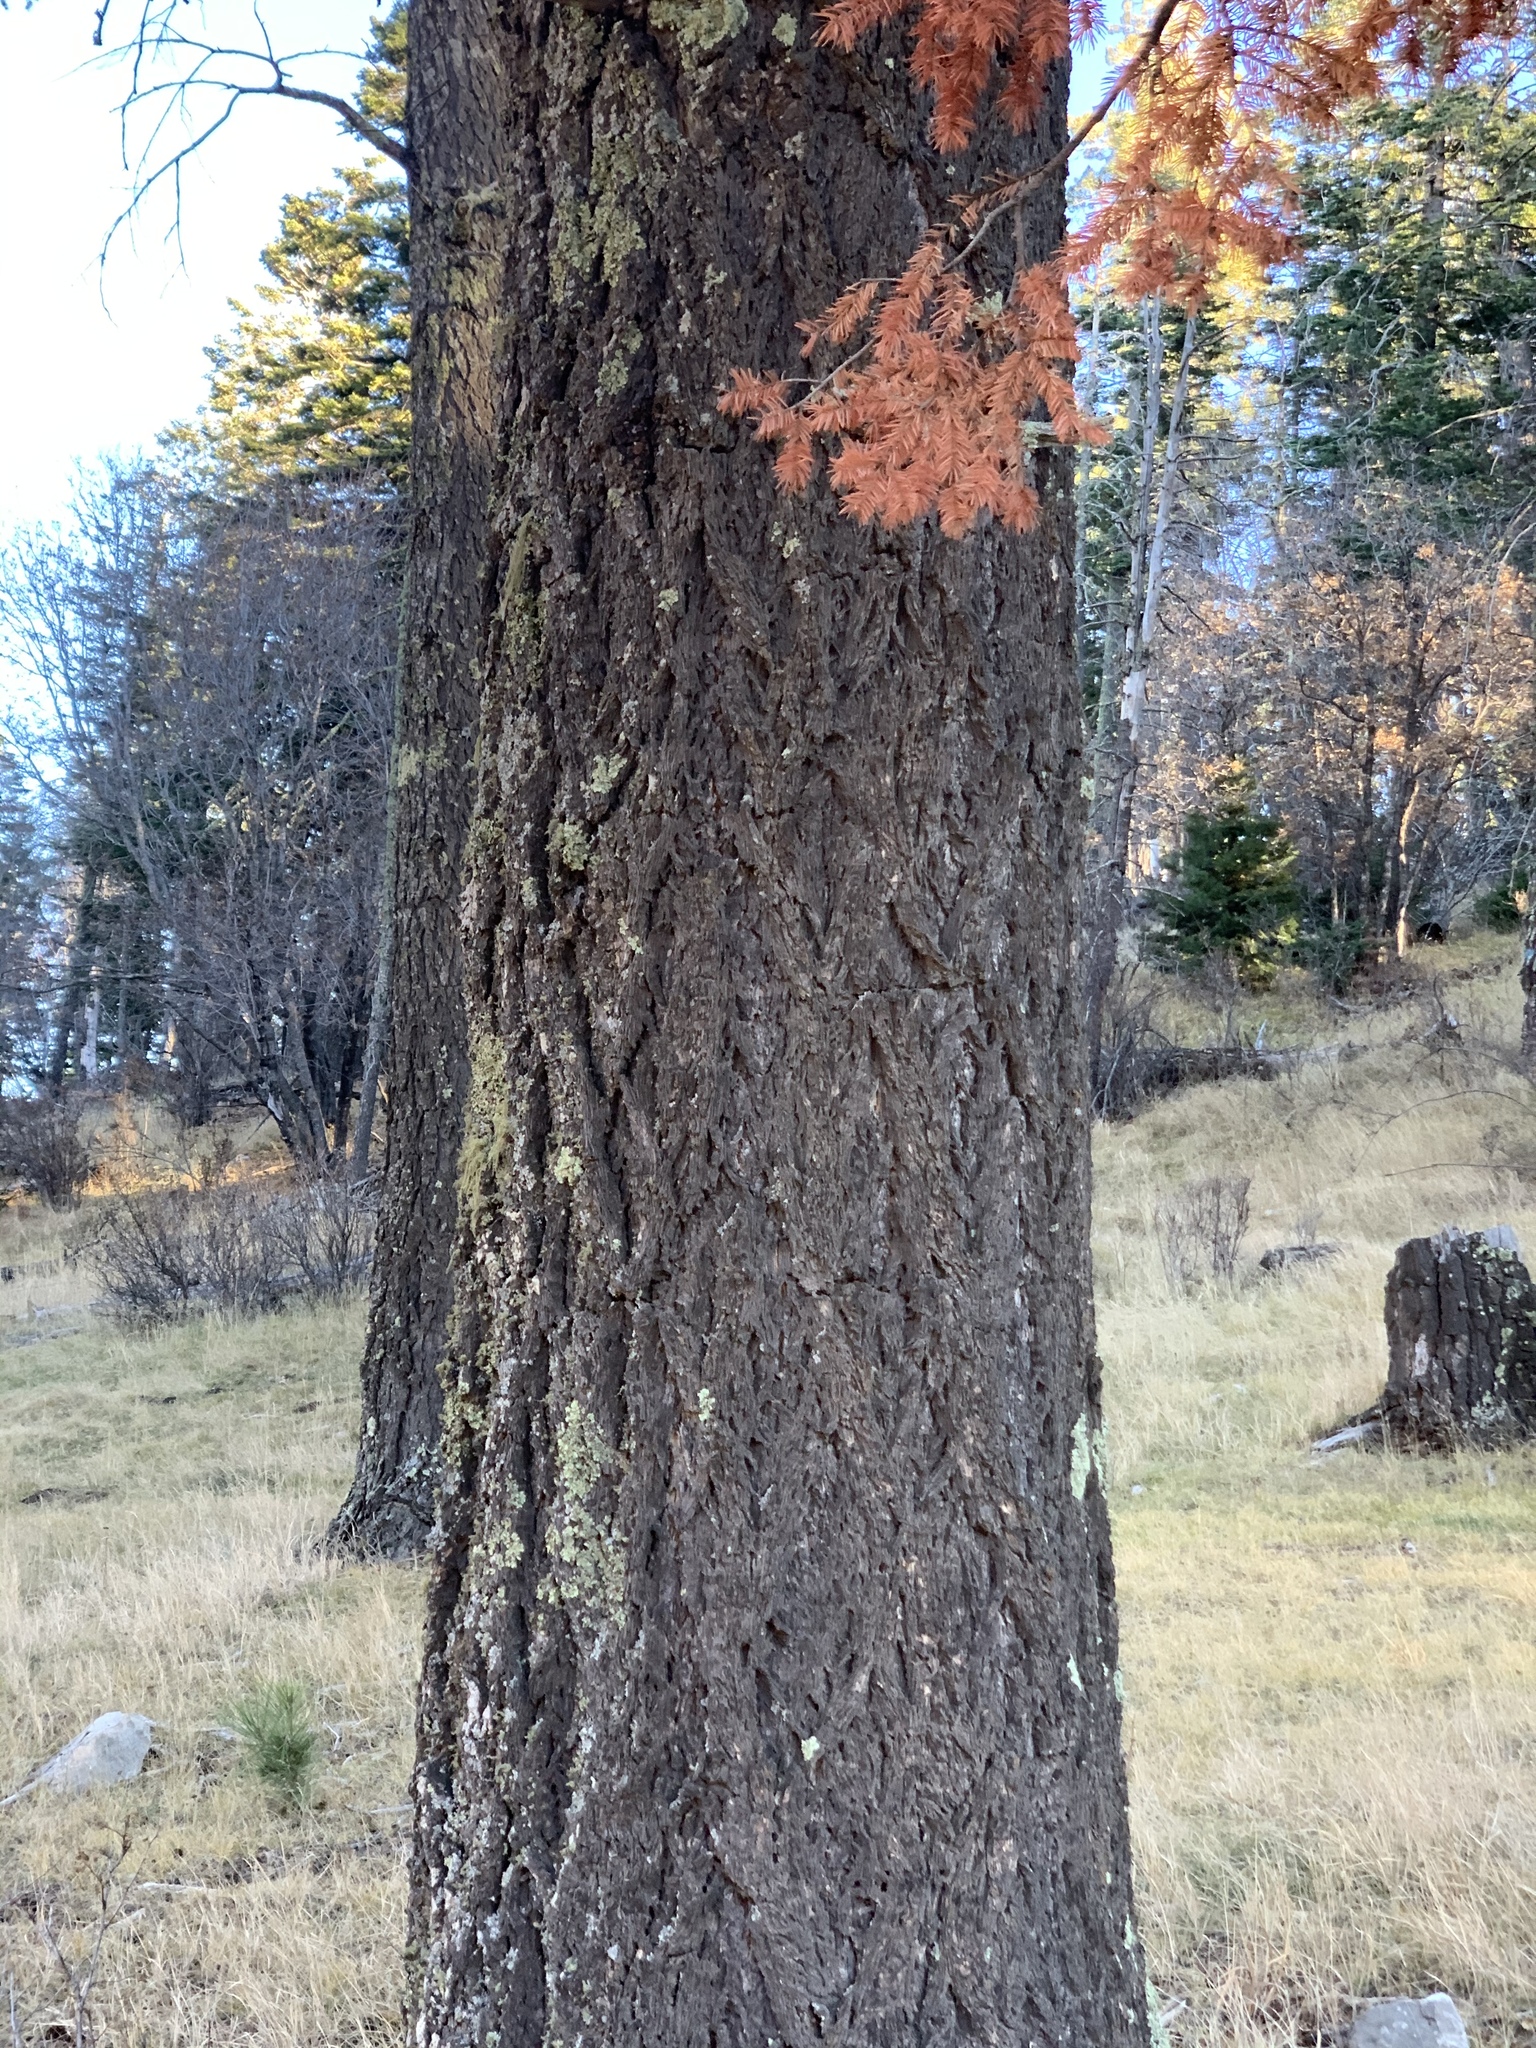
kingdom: Plantae
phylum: Tracheophyta
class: Pinopsida
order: Pinales
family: Pinaceae
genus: Pseudotsuga
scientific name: Pseudotsuga menziesii
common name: Douglas fir
